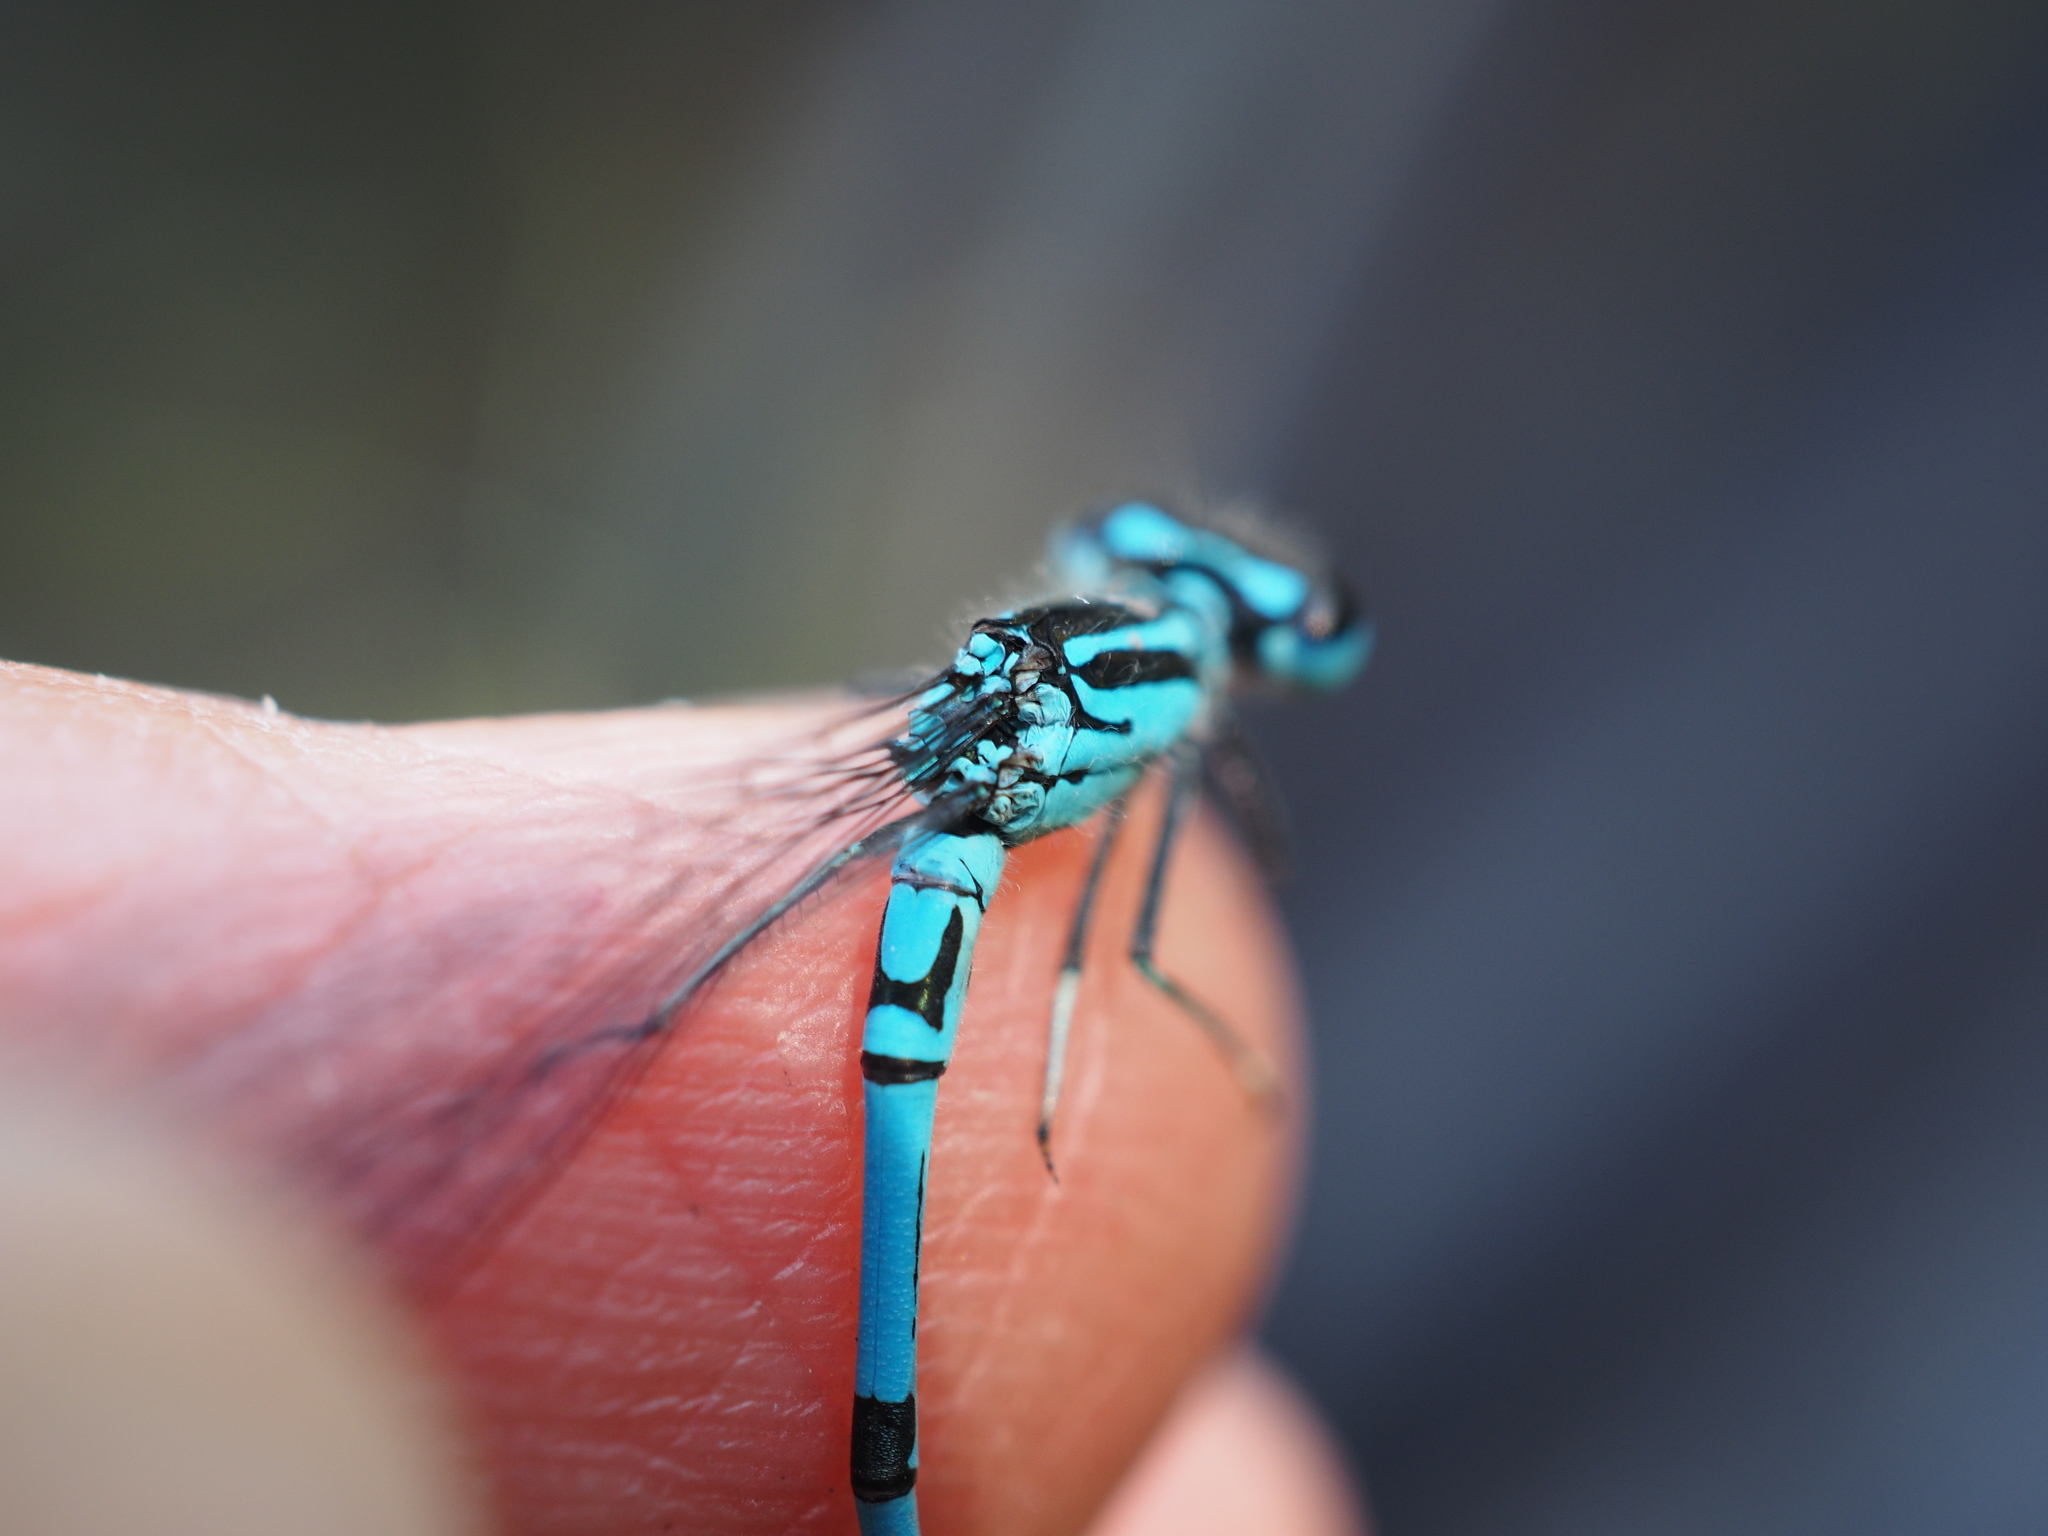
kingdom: Animalia
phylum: Arthropoda
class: Insecta
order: Odonata
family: Coenagrionidae
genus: Coenagrion
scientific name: Coenagrion puella
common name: Azure damselfly
